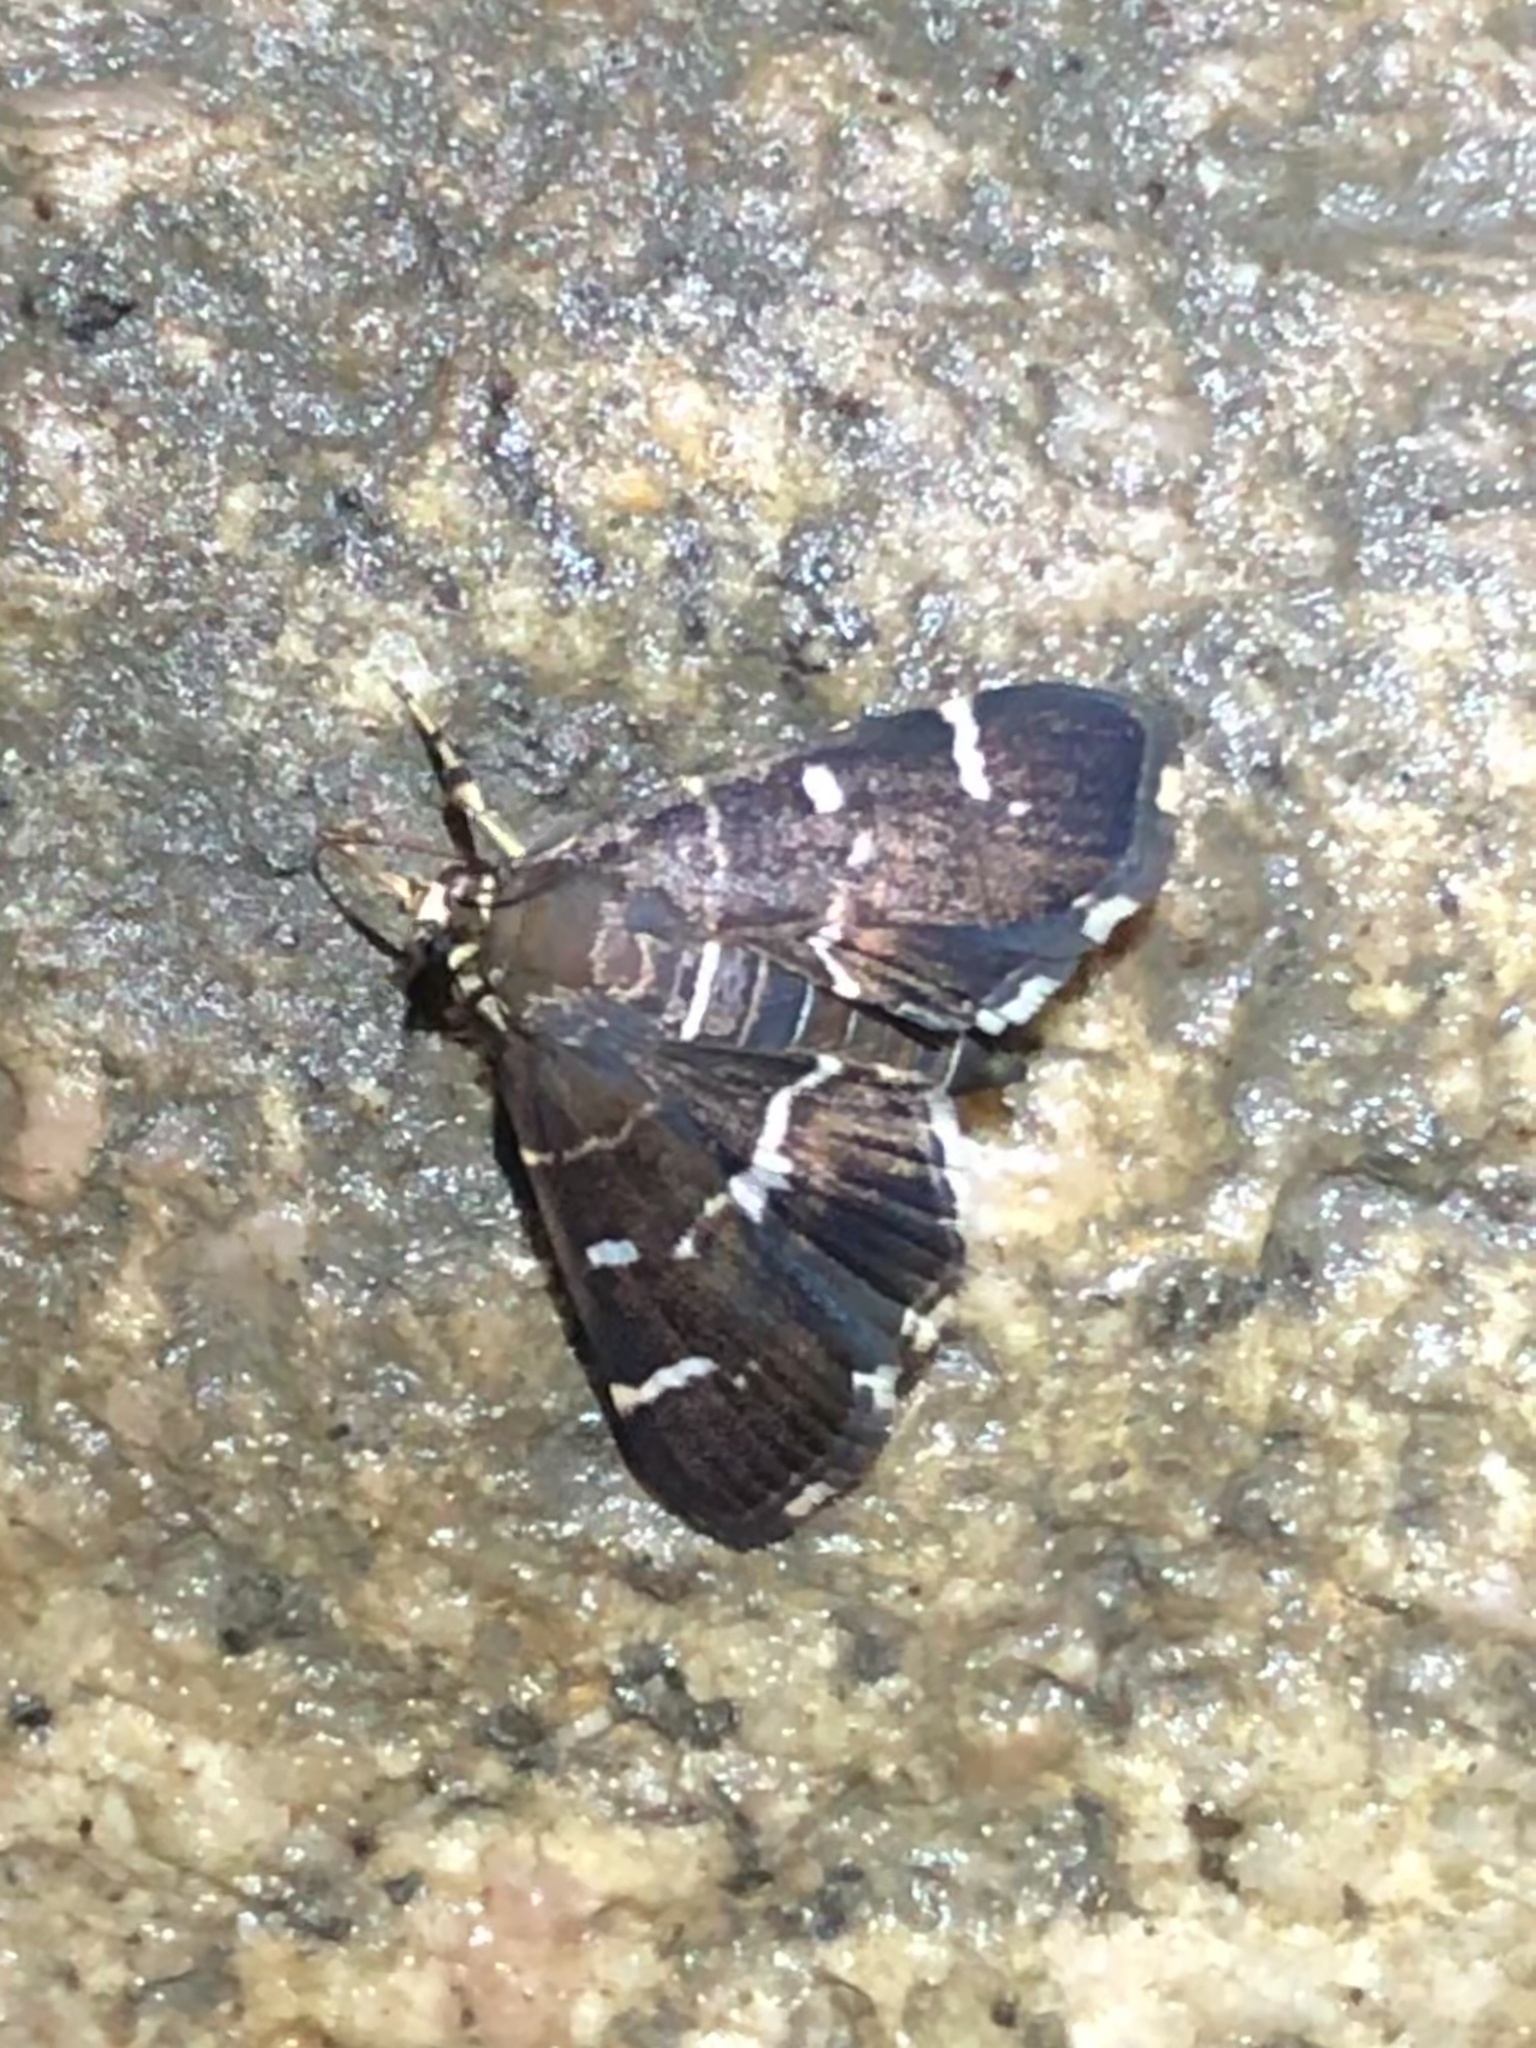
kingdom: Animalia
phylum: Arthropoda
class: Insecta
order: Lepidoptera
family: Crambidae
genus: Hymenia
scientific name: Hymenia perspectalis
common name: Spotted beet webworm
